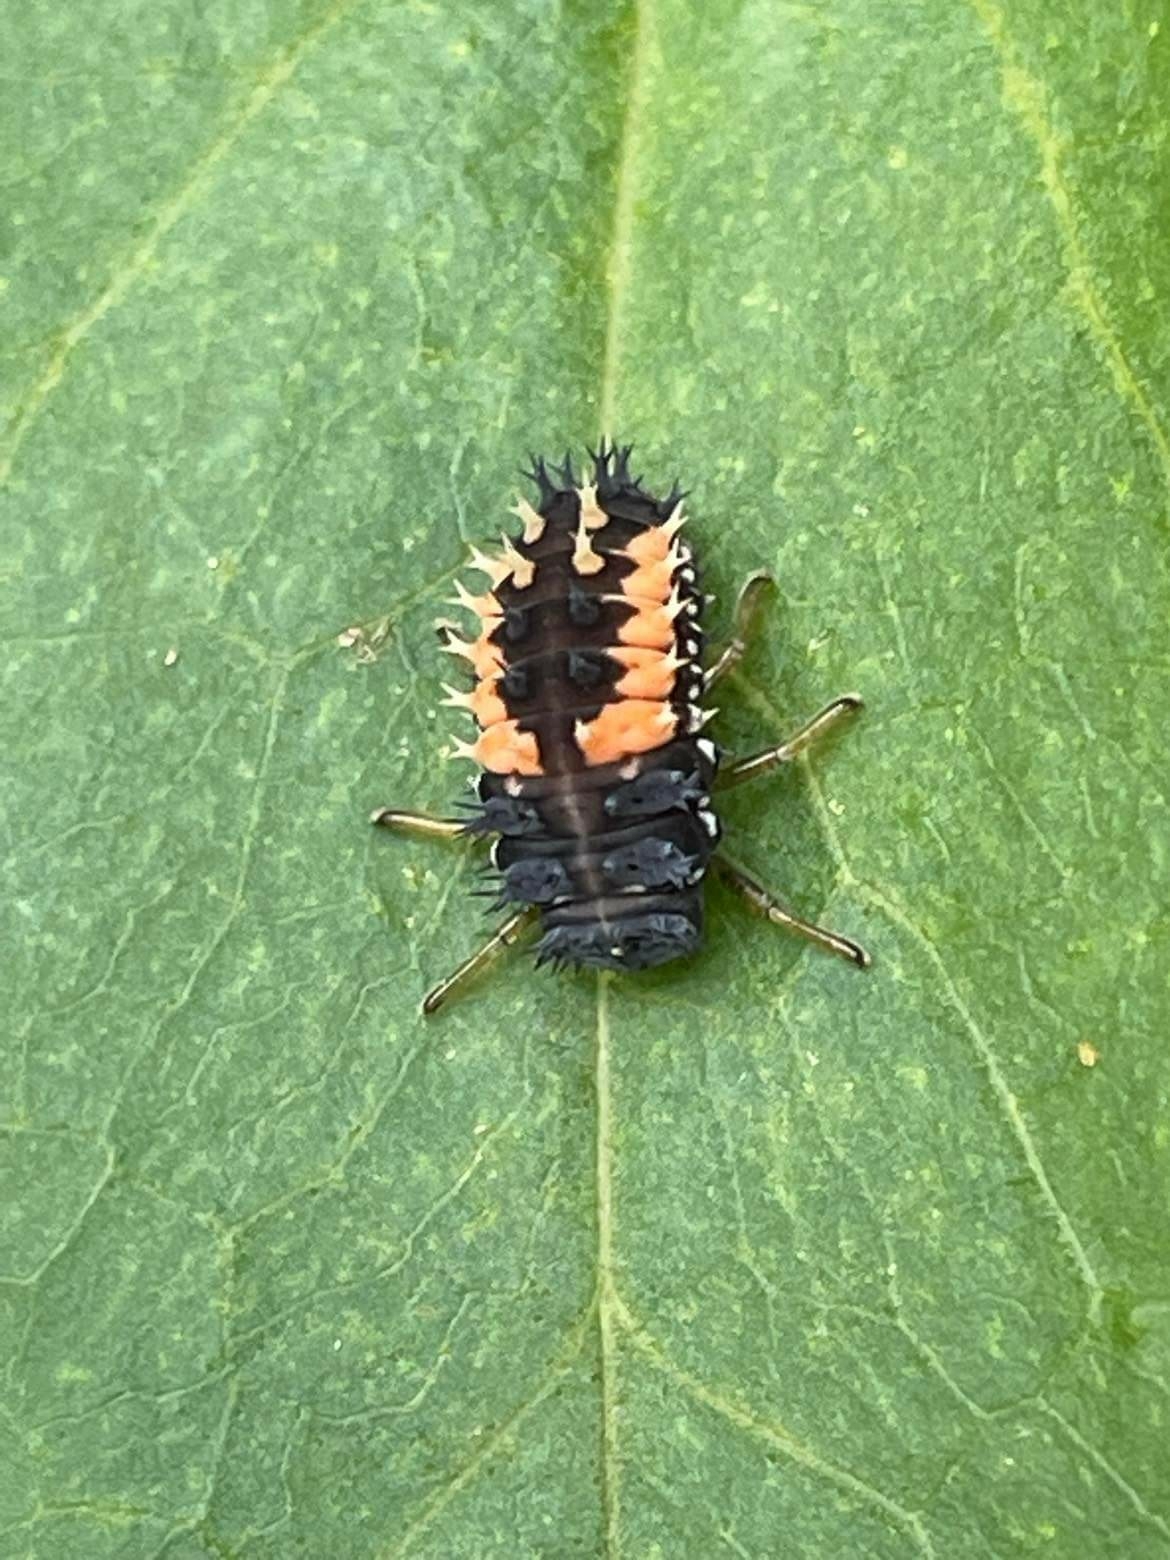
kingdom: Animalia
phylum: Arthropoda
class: Insecta
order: Coleoptera
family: Coccinellidae
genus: Harmonia
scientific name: Harmonia axyridis
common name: Harlequin ladybird
